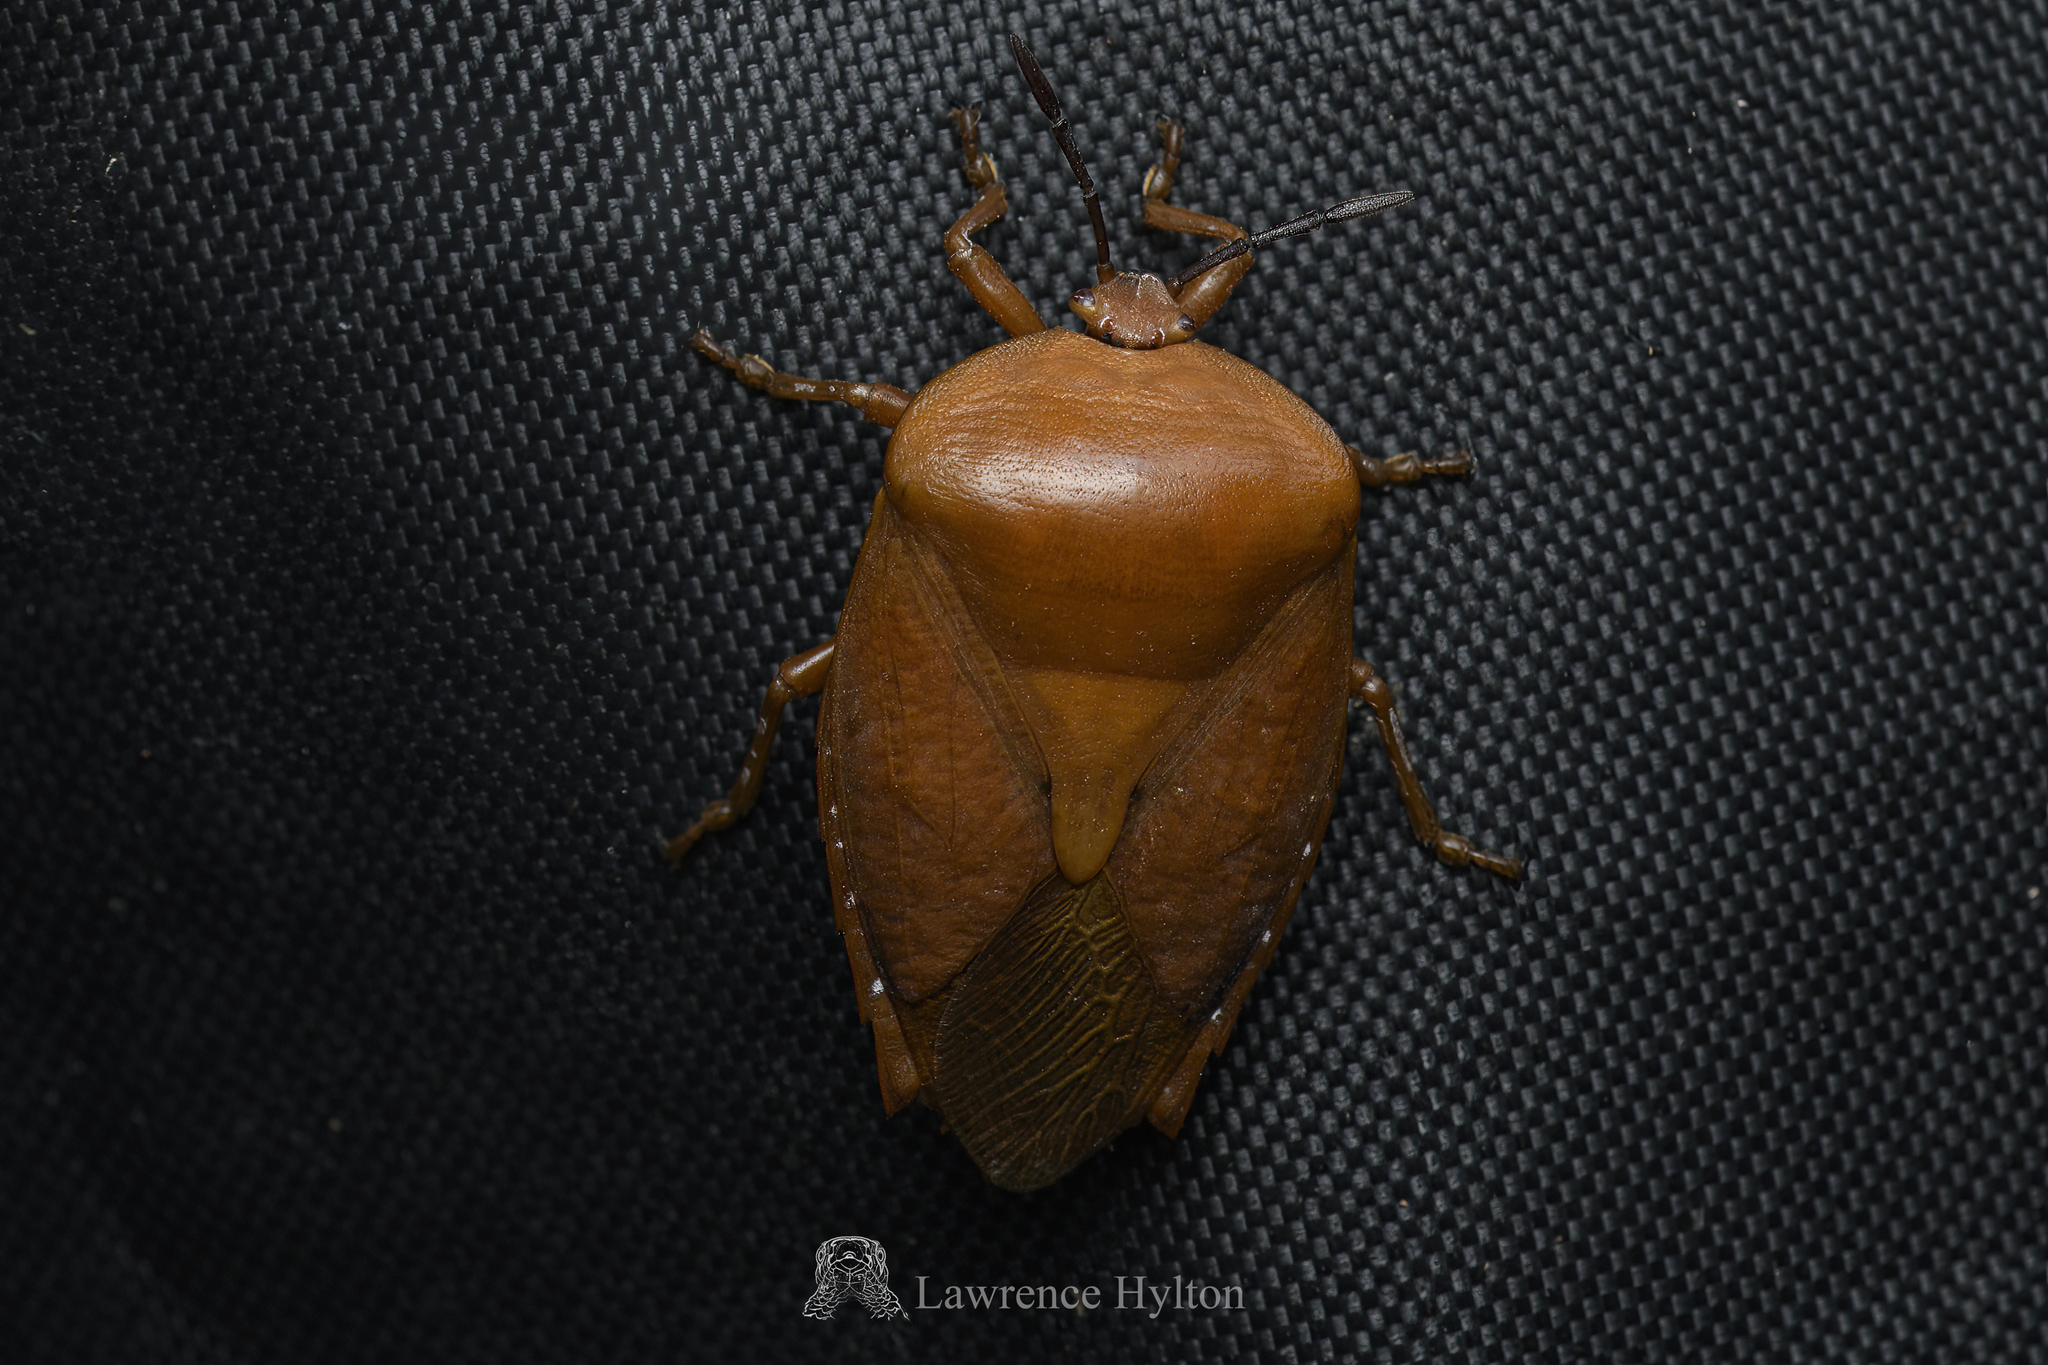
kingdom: Animalia
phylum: Arthropoda
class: Insecta
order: Hemiptera
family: Tessaratomidae
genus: Tessaratoma
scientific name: Tessaratoma papillosa
